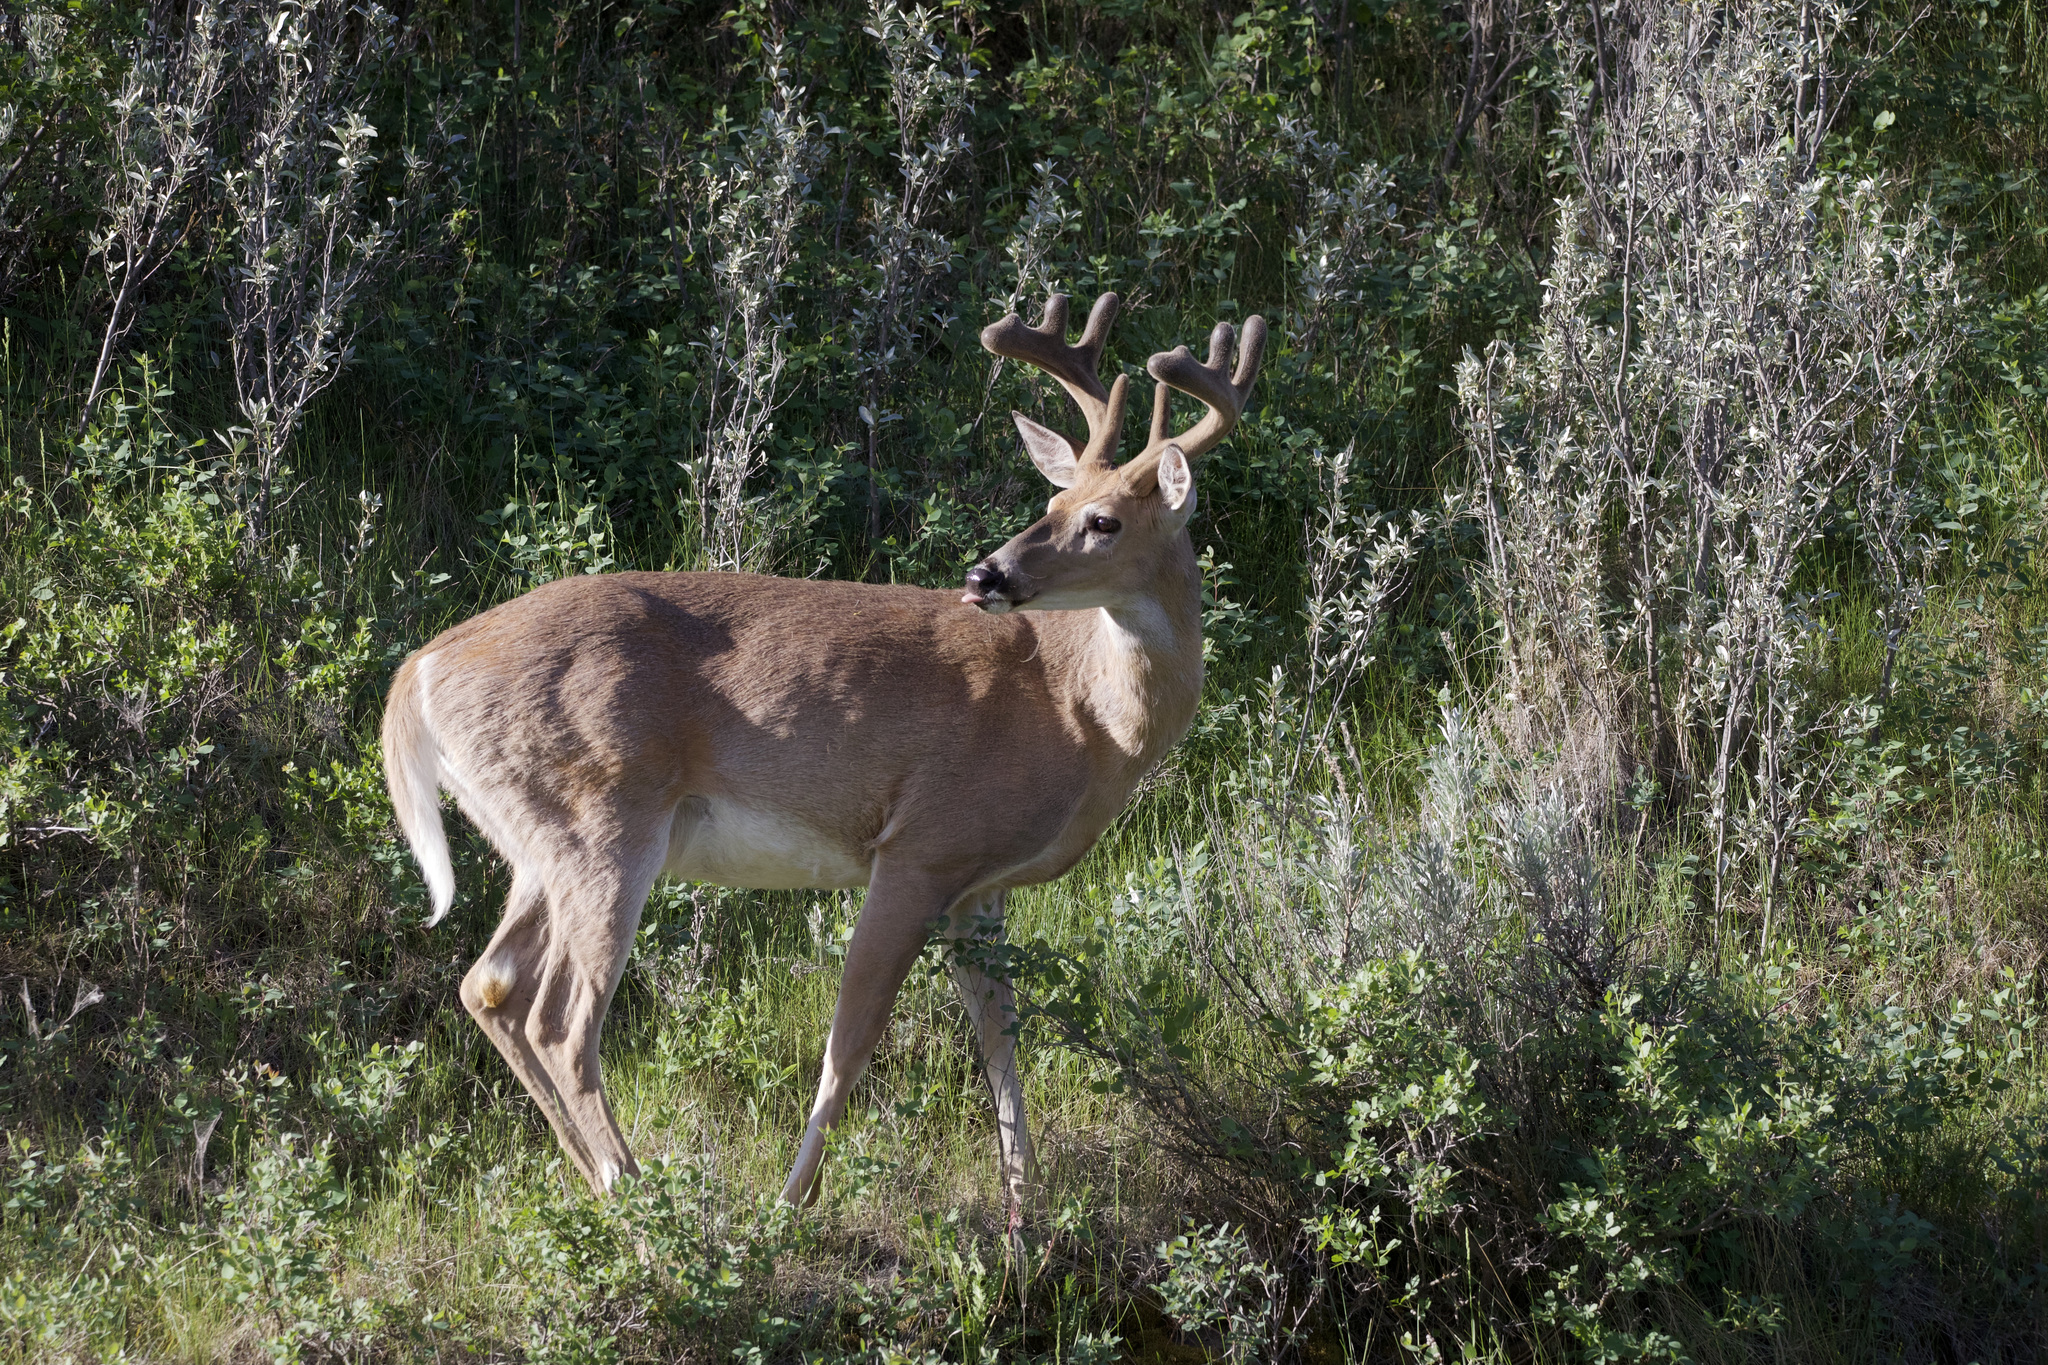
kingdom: Animalia
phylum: Chordata
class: Mammalia
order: Artiodactyla
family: Cervidae
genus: Odocoileus
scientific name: Odocoileus virginianus
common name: White-tailed deer
